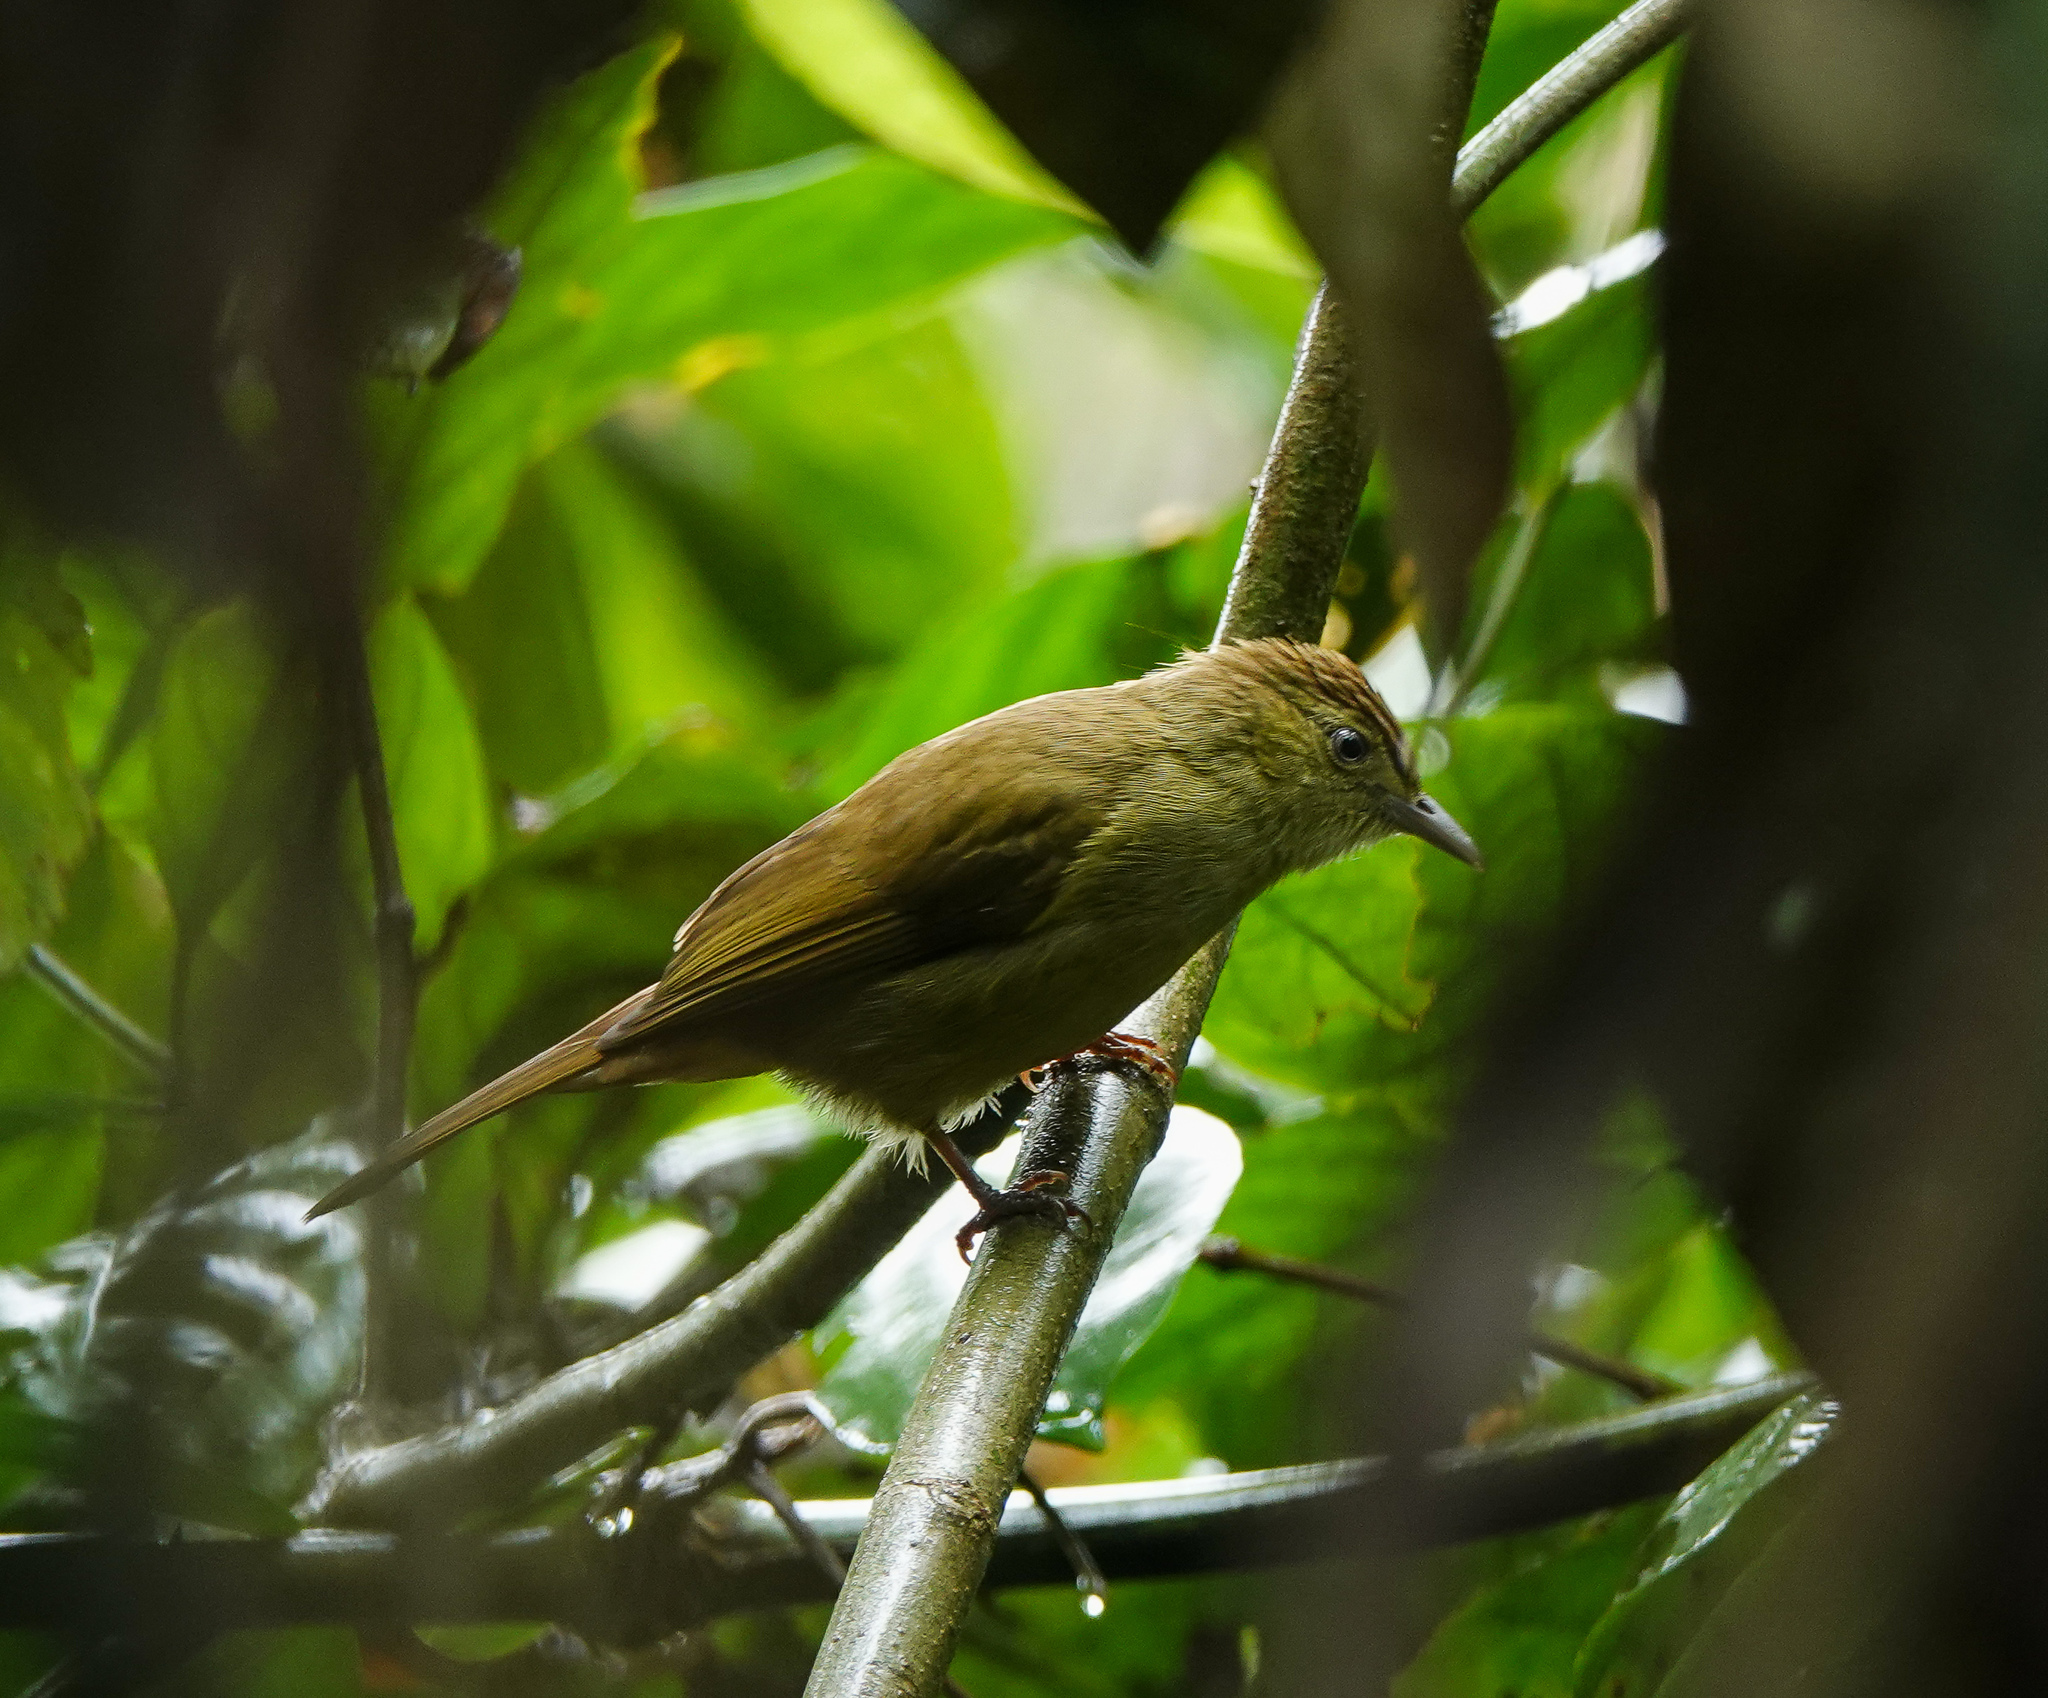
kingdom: Animalia
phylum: Chordata
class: Aves
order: Passeriformes
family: Pycnonotidae
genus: Iole
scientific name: Iole virescens
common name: Olive bulbul
